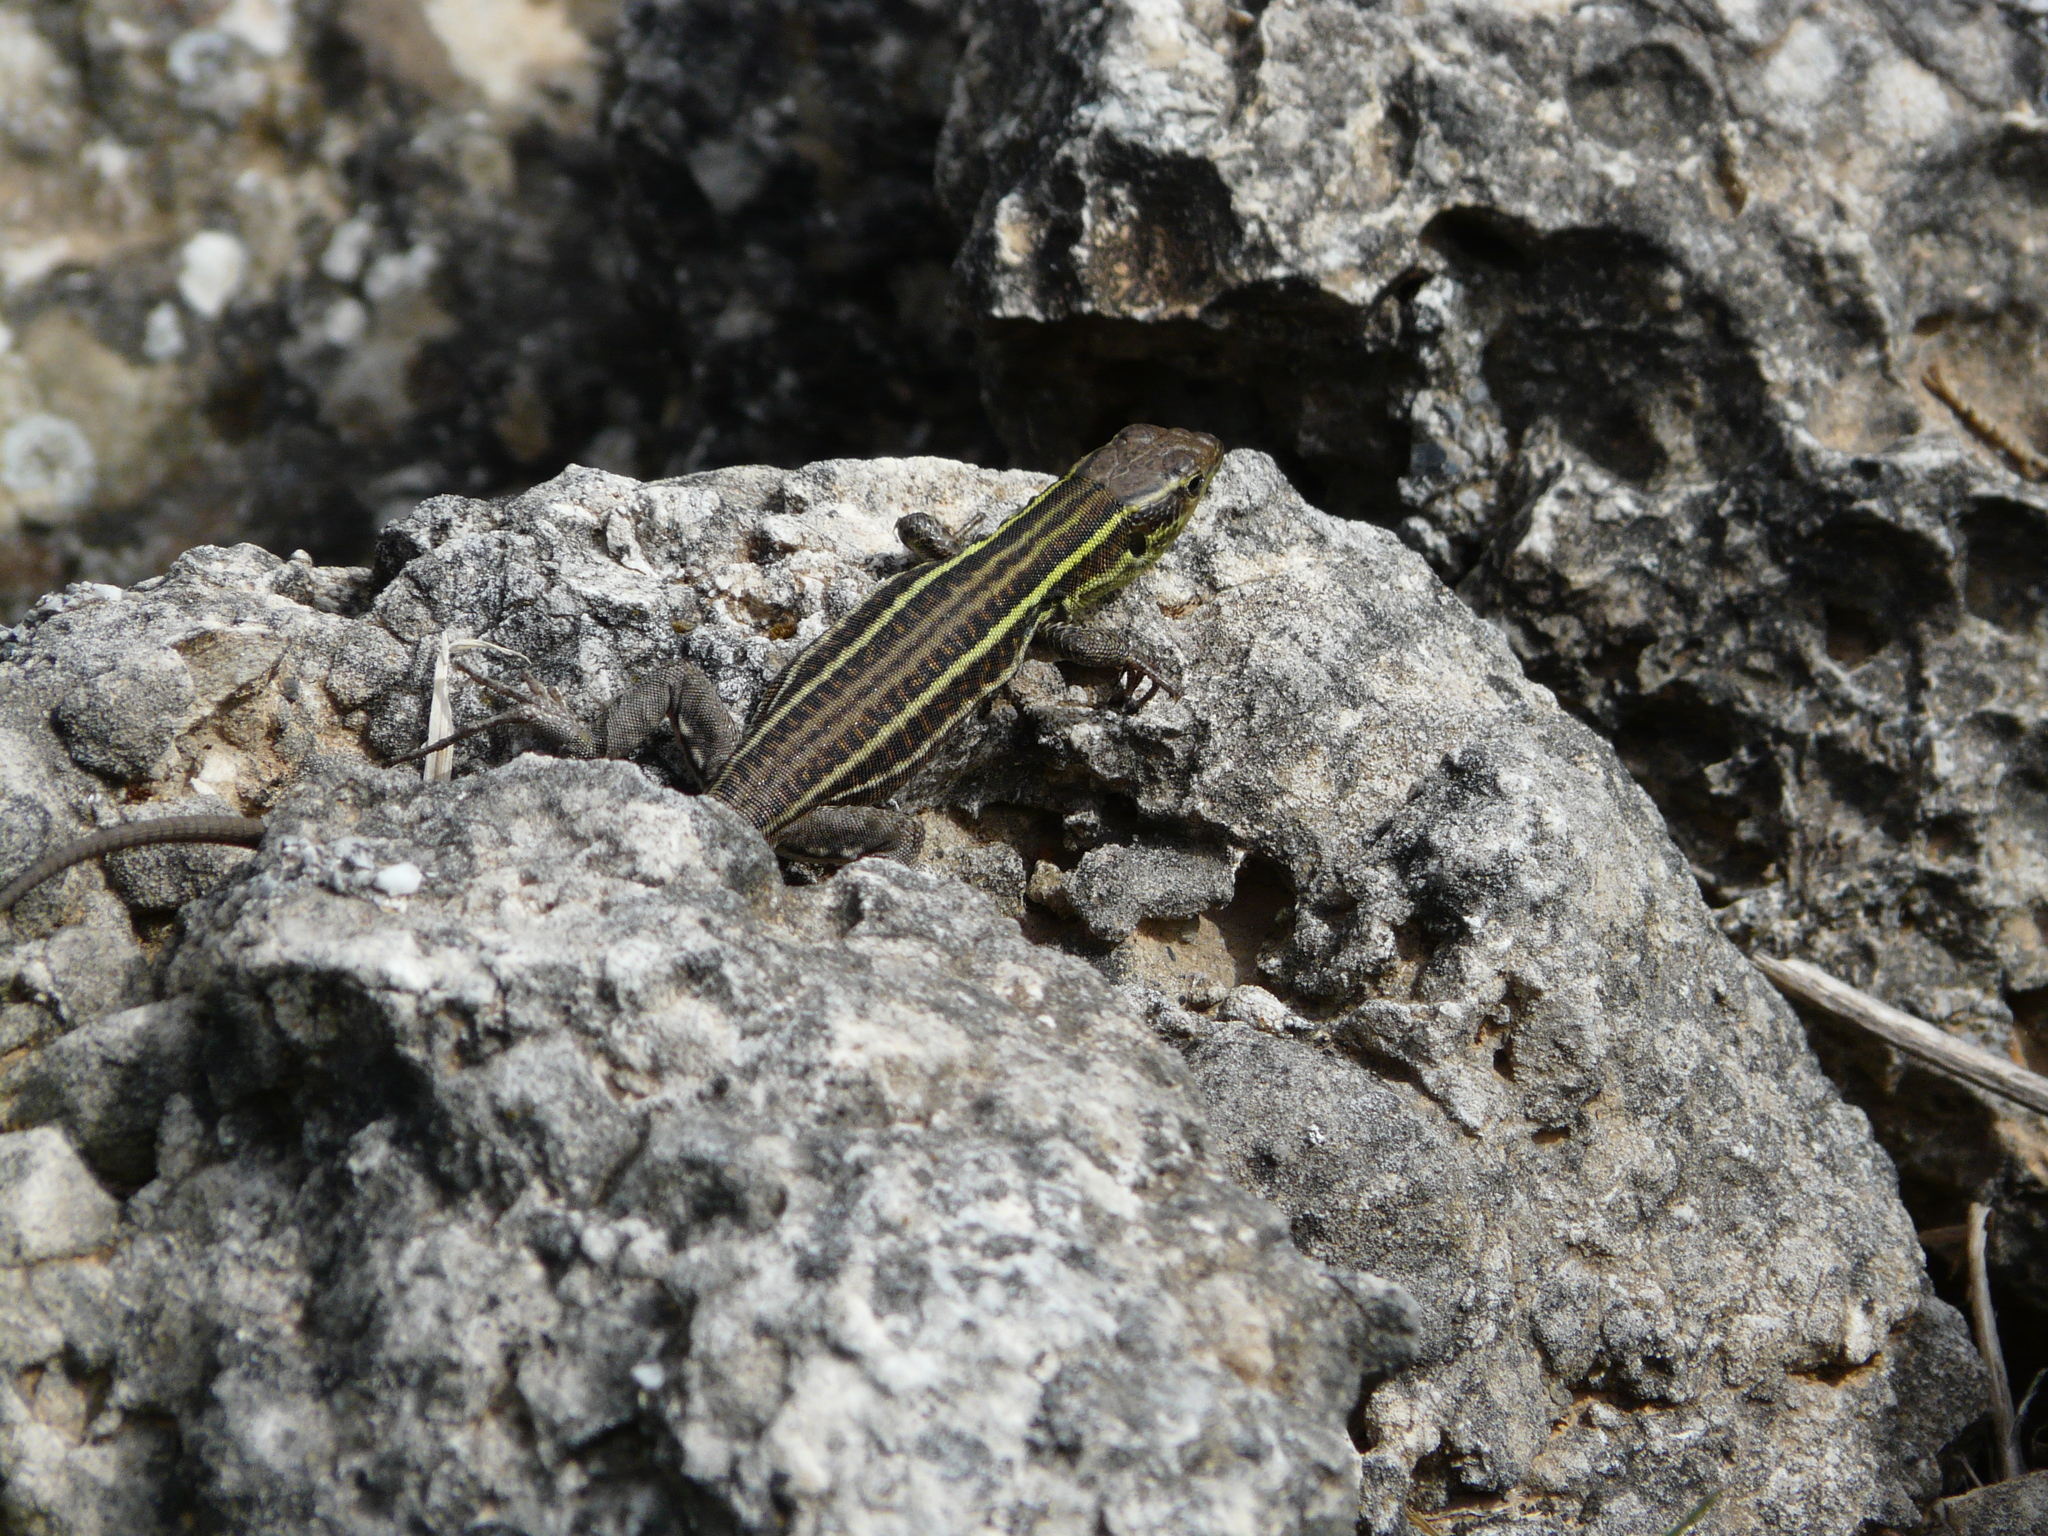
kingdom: Animalia
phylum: Chordata
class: Squamata
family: Lacertidae
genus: Podarcis
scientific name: Podarcis peloponnesiacus
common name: Peloponnese wall lizard
